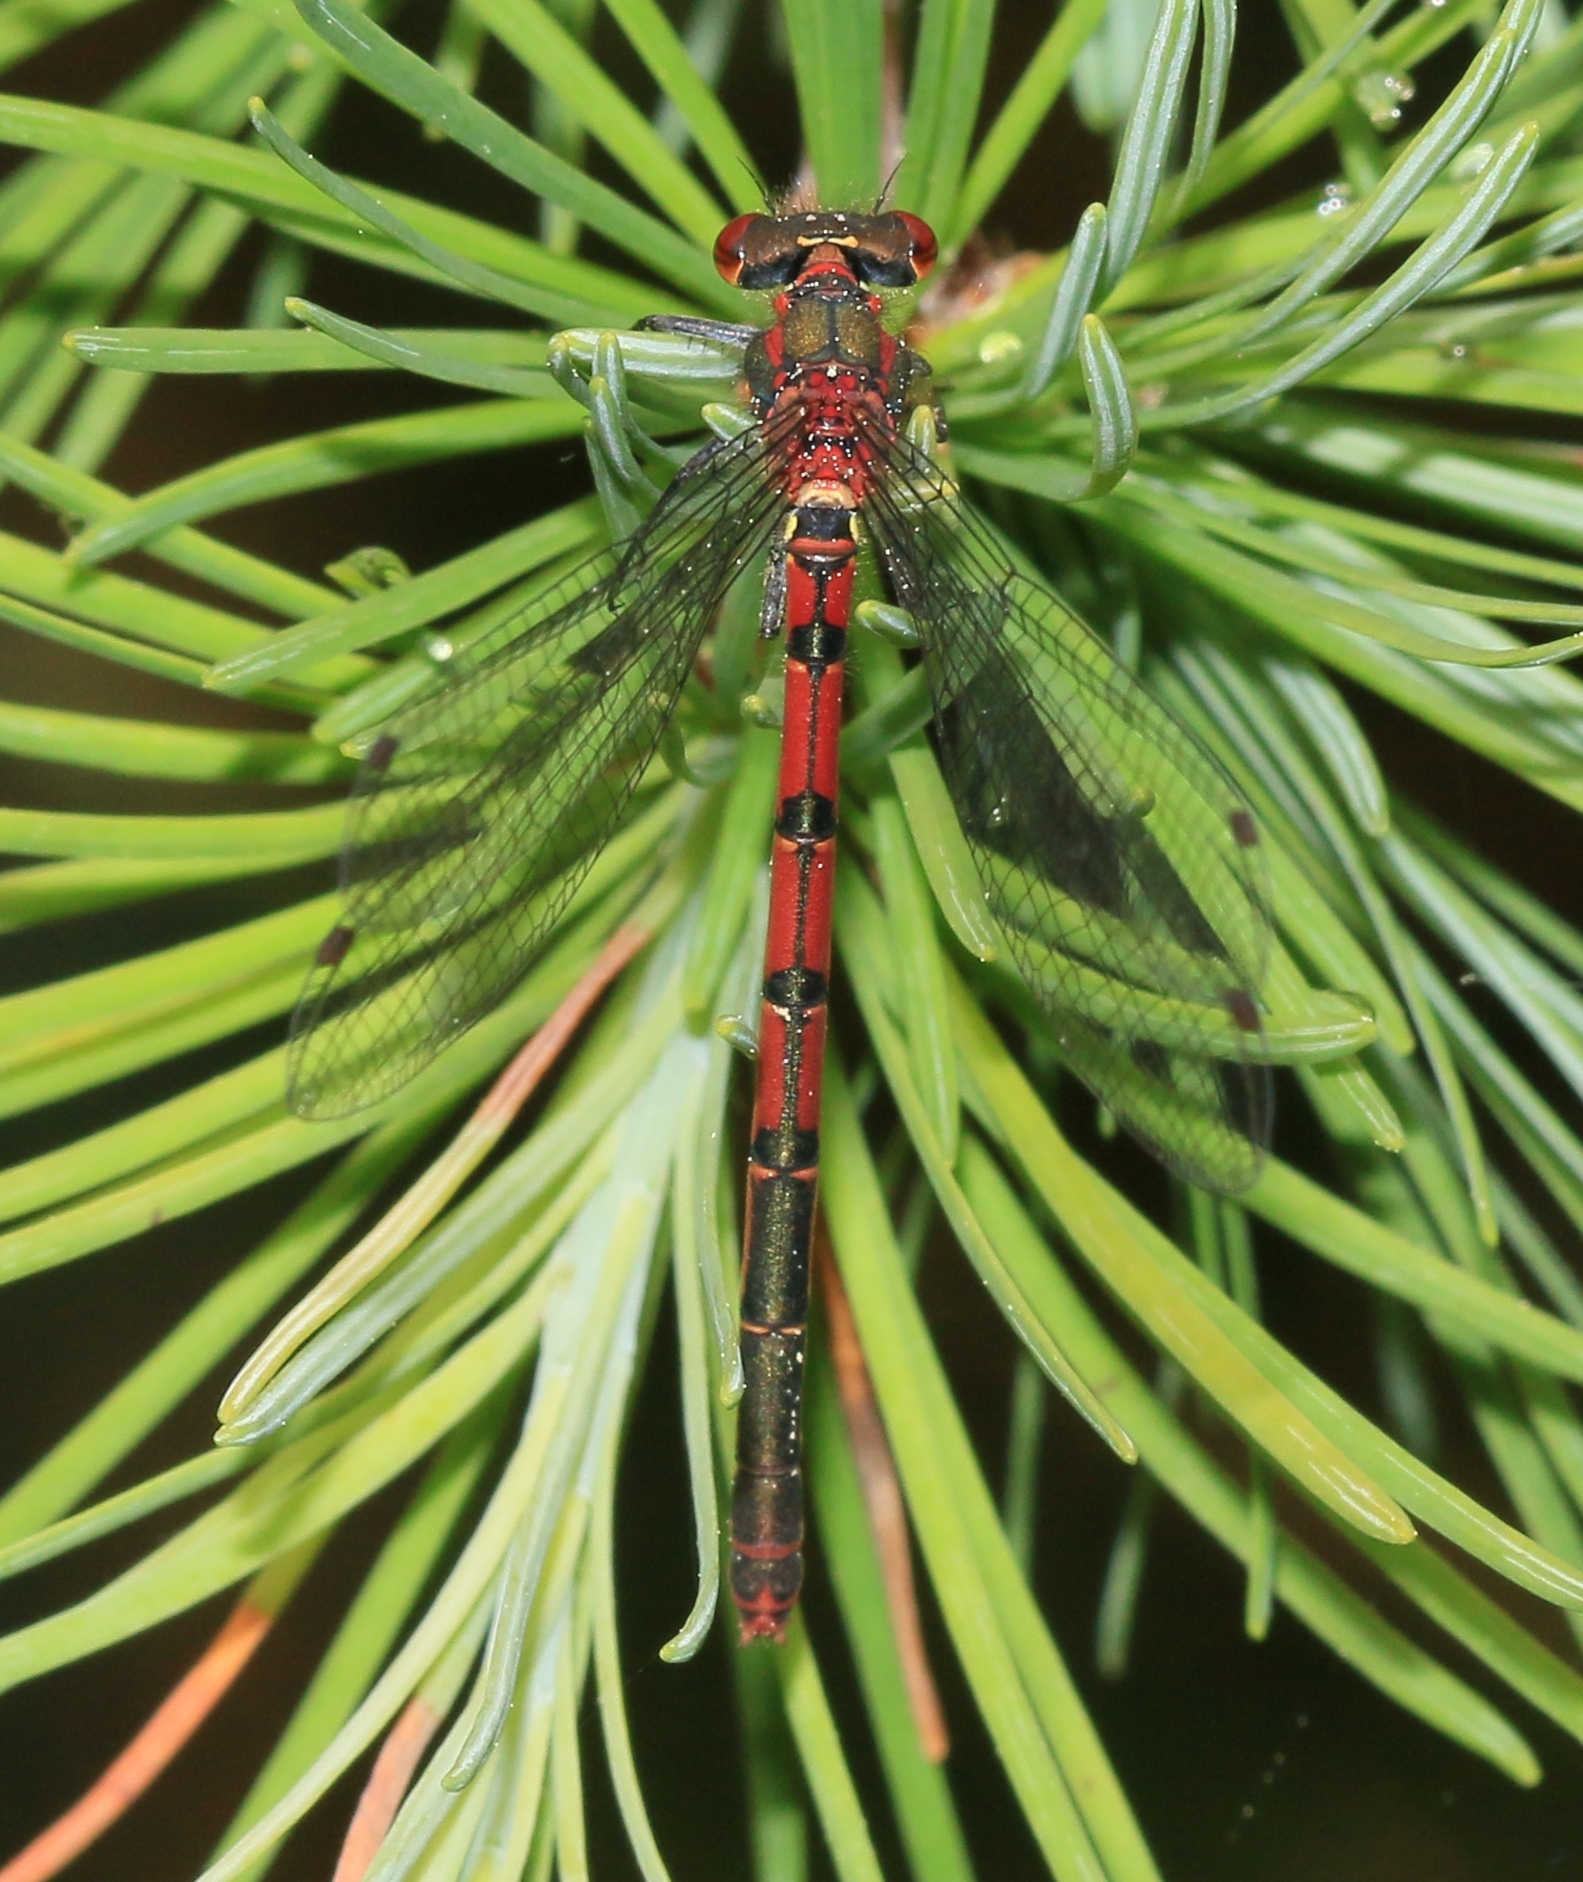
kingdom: Animalia
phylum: Arthropoda
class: Insecta
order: Odonata
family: Coenagrionidae
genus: Pyrrhosoma
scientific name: Pyrrhosoma nymphula
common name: Large red damsel
